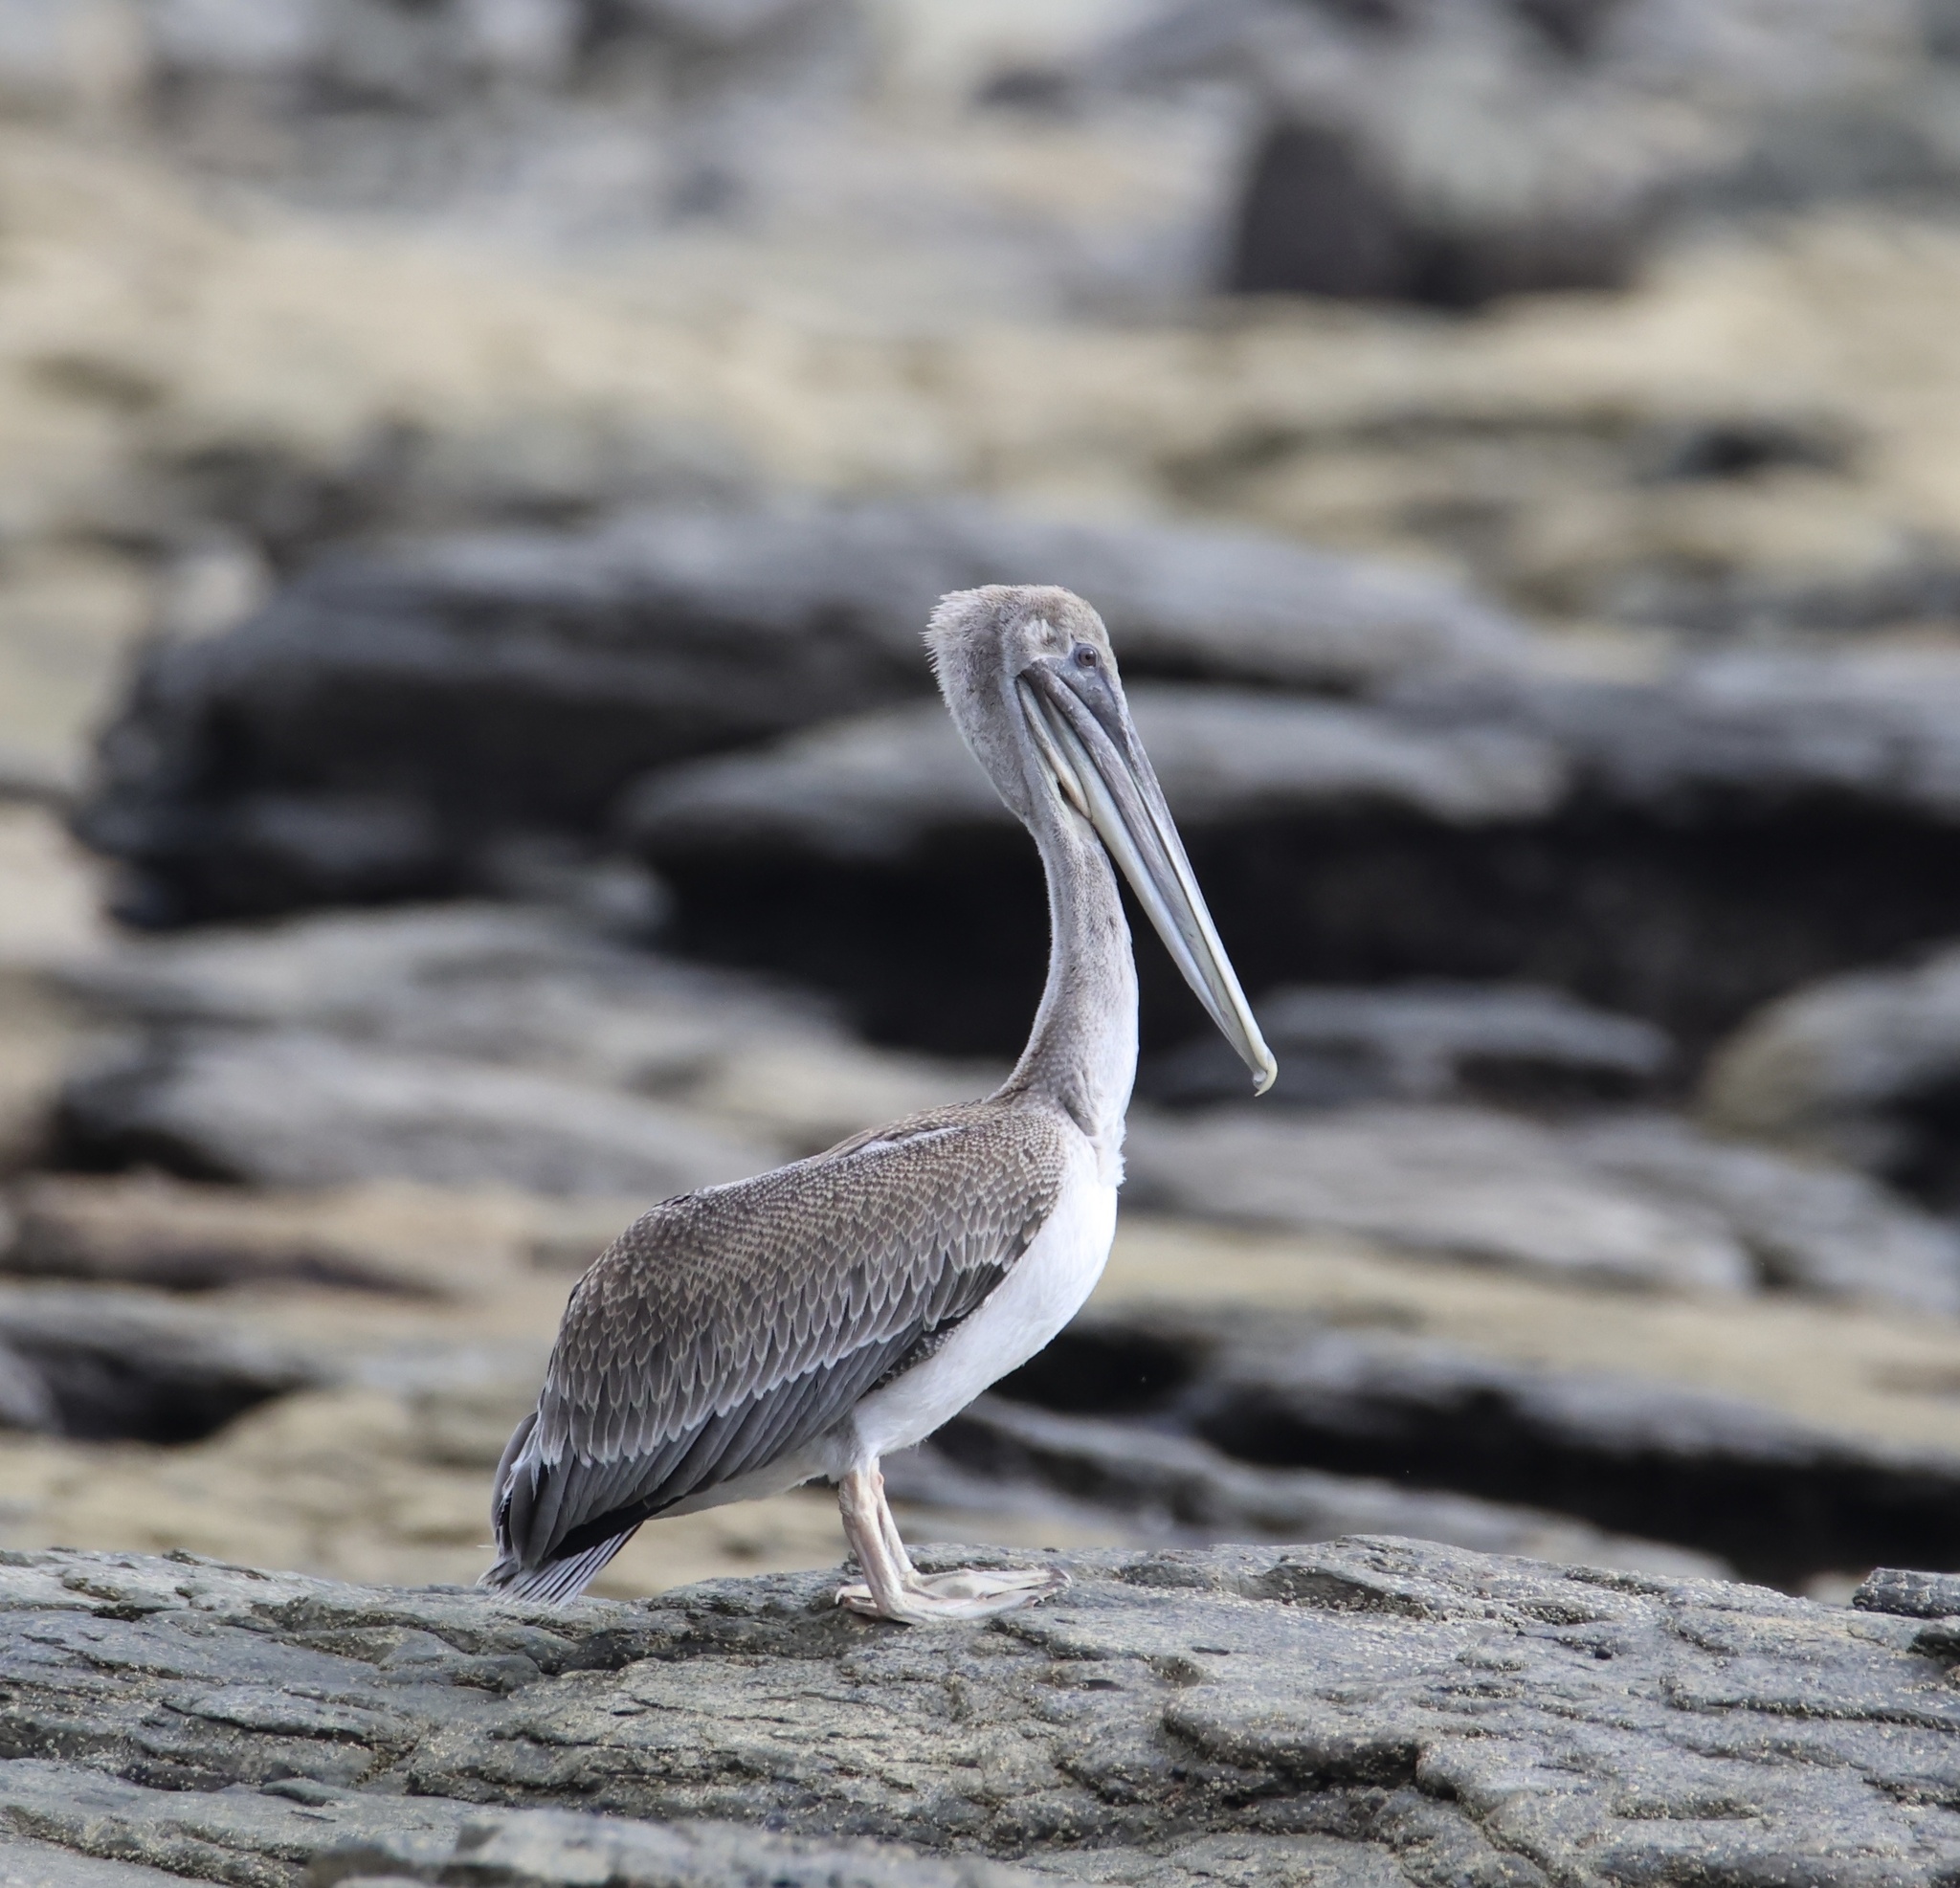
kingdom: Animalia
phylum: Chordata
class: Aves
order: Pelecaniformes
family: Pelecanidae
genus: Pelecanus
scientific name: Pelecanus occidentalis
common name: Brown pelican
